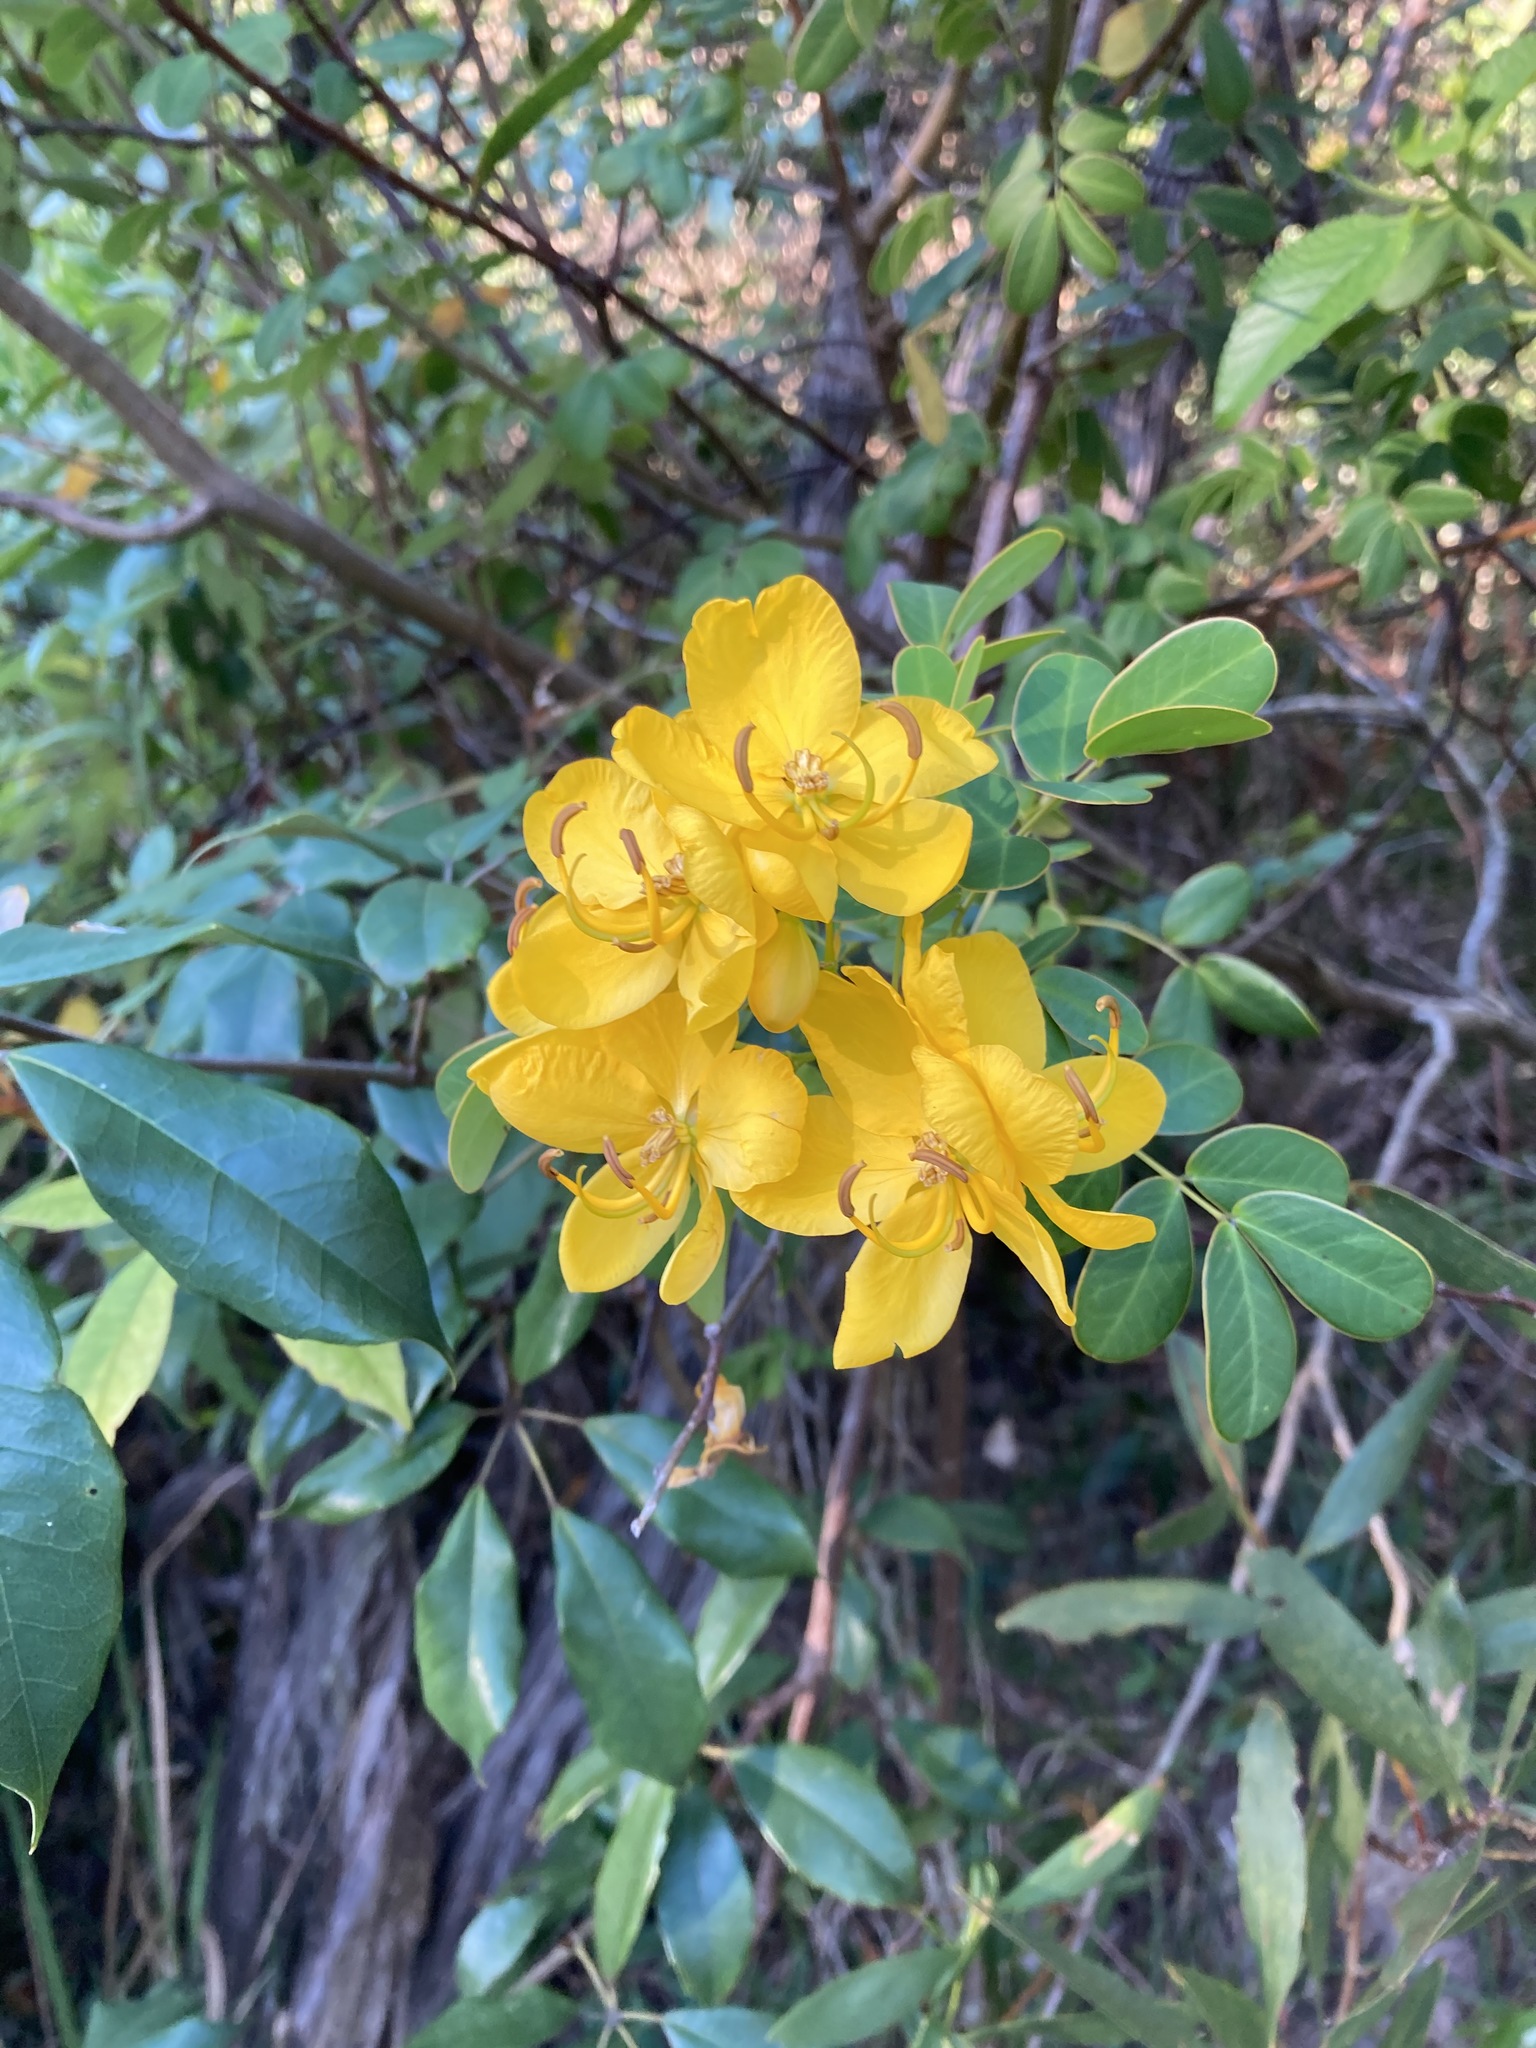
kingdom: Plantae
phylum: Tracheophyta
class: Magnoliopsida
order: Fabales
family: Fabaceae
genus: Senna
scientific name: Senna pendula
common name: Easter cassia
